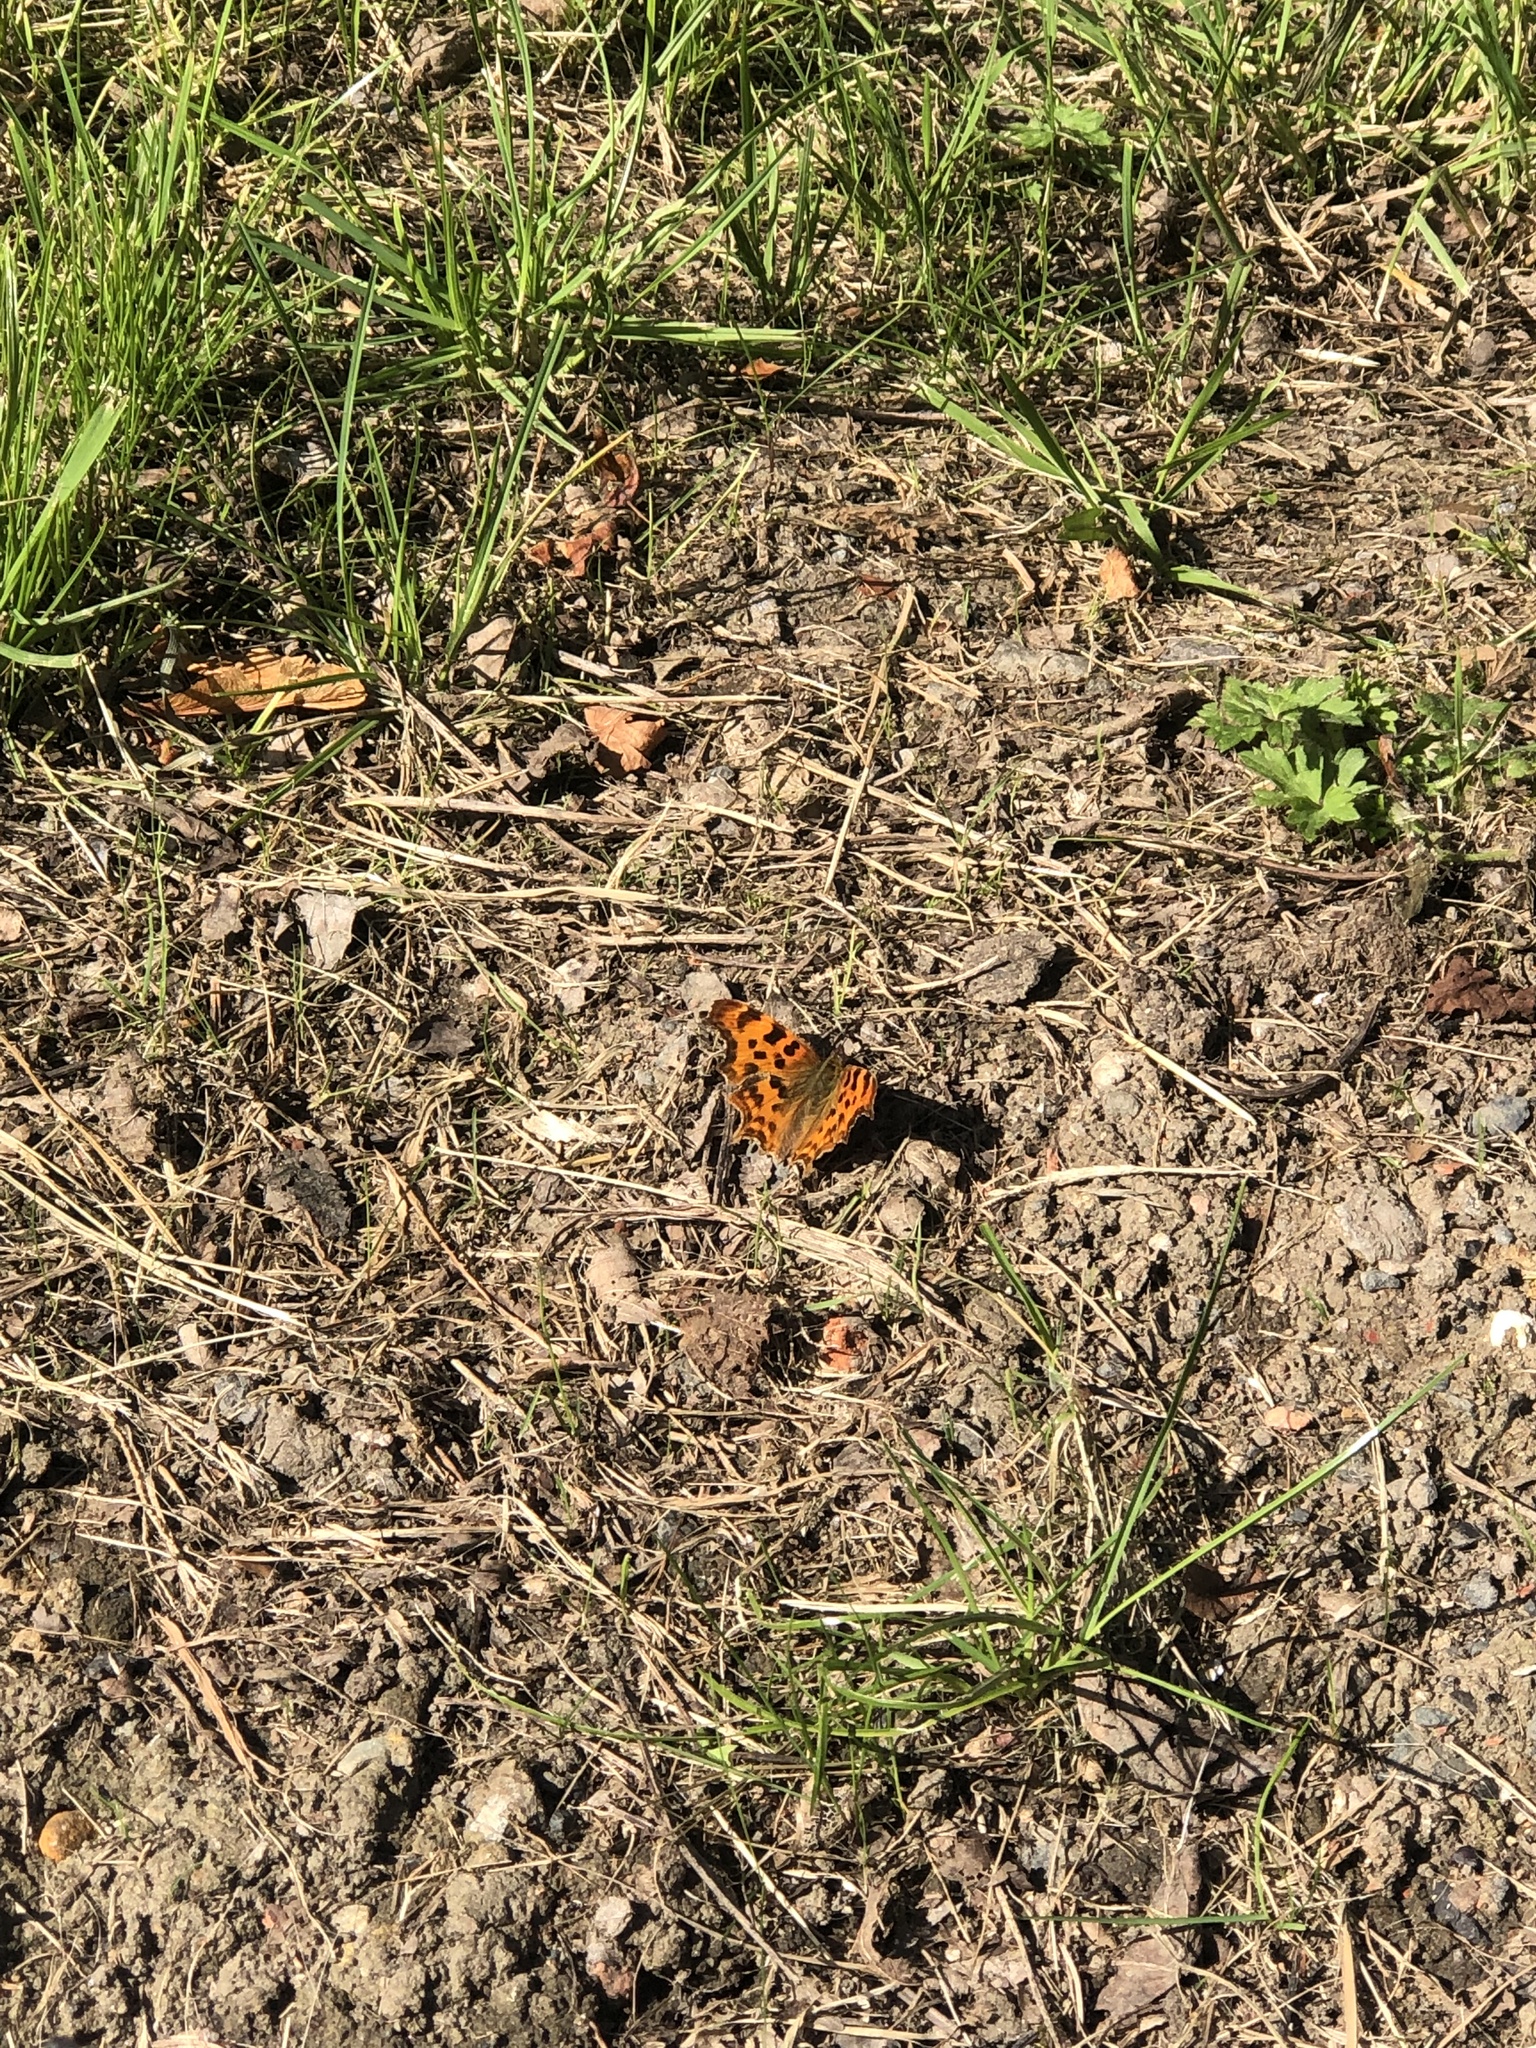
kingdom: Animalia
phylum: Arthropoda
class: Insecta
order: Lepidoptera
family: Nymphalidae
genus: Polygonia
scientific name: Polygonia c-album
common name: Comma
